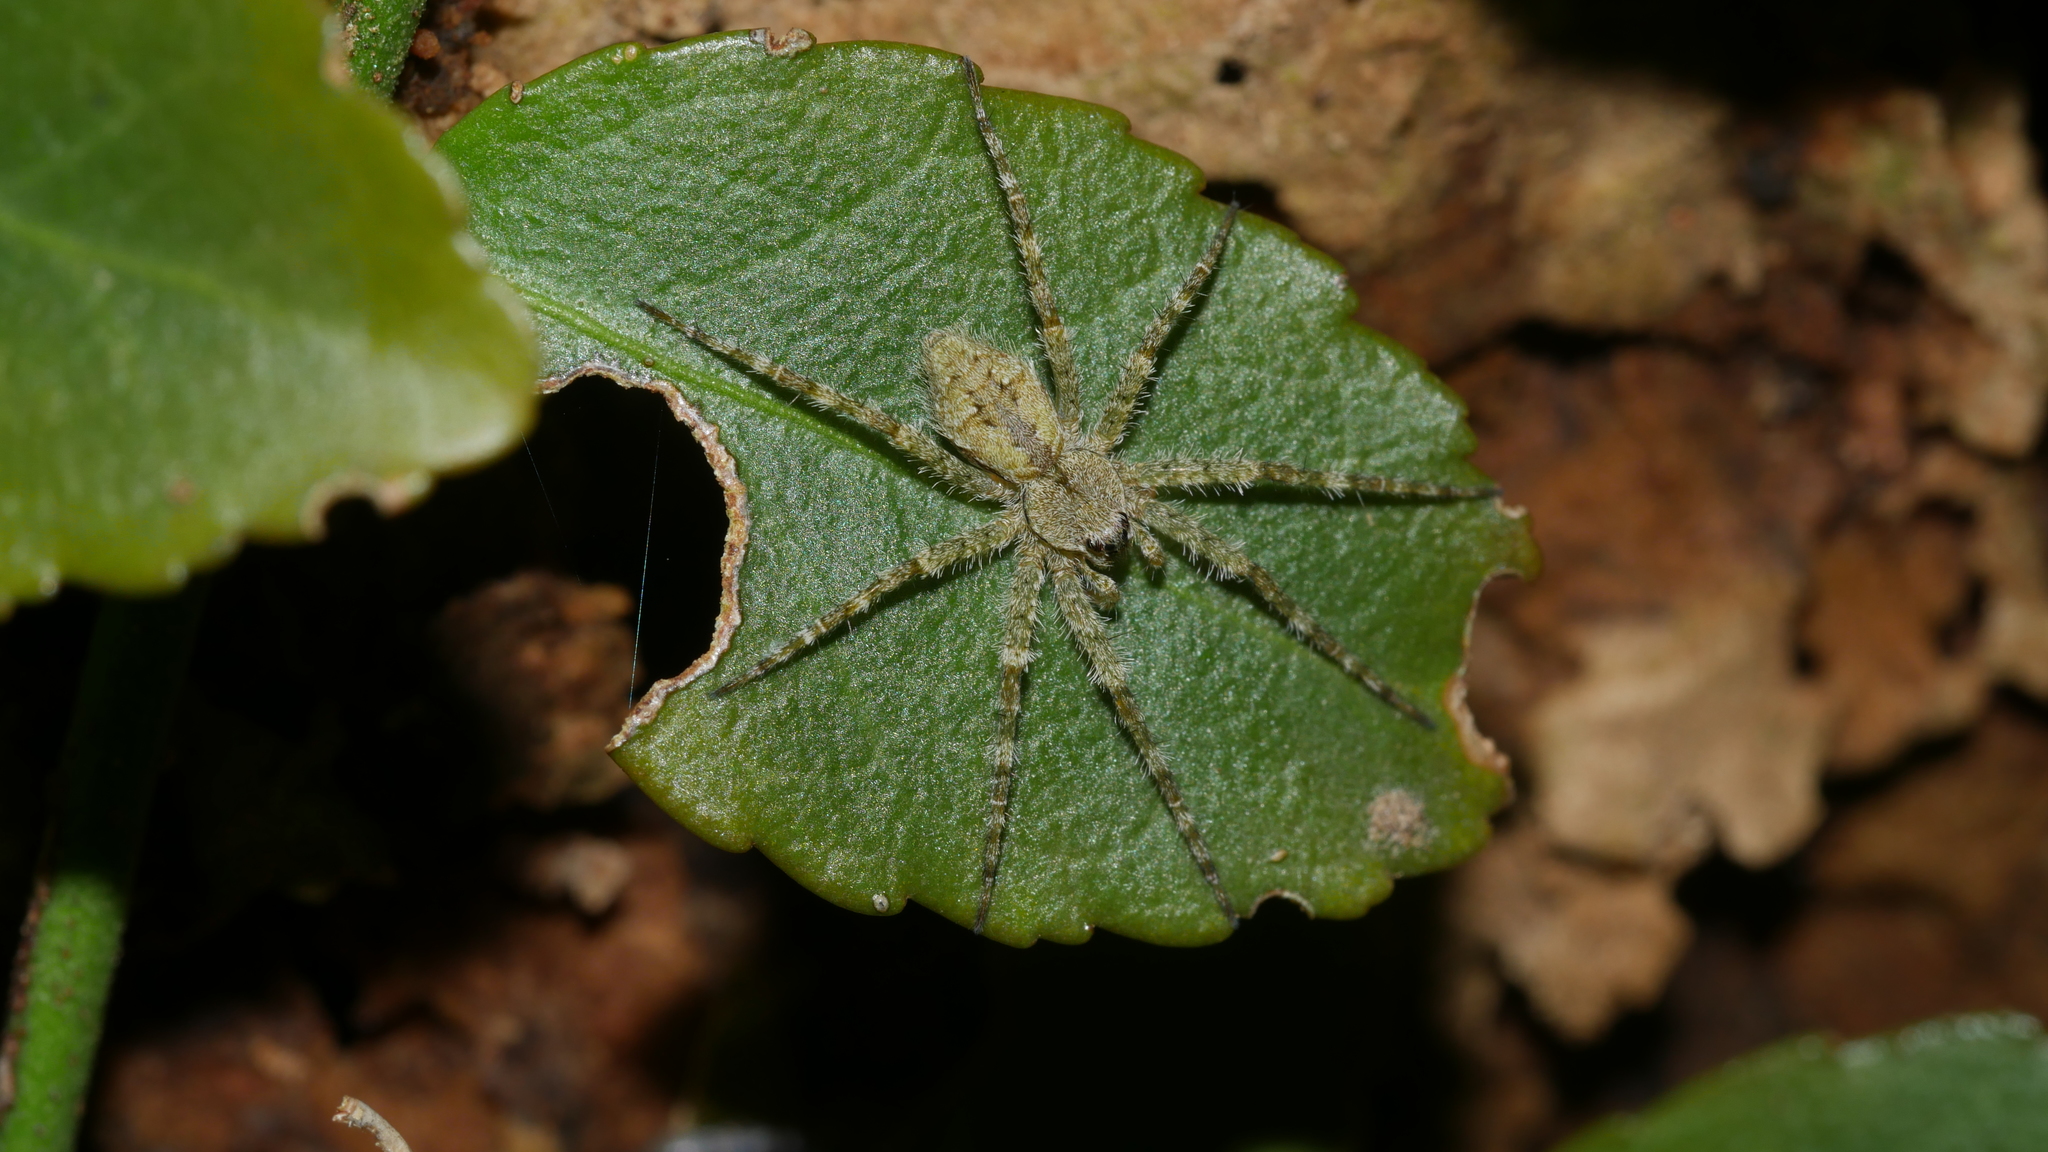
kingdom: Animalia
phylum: Arthropoda
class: Arachnida
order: Araneae
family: Pisauridae
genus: Dolomedes
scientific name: Dolomedes albineus
